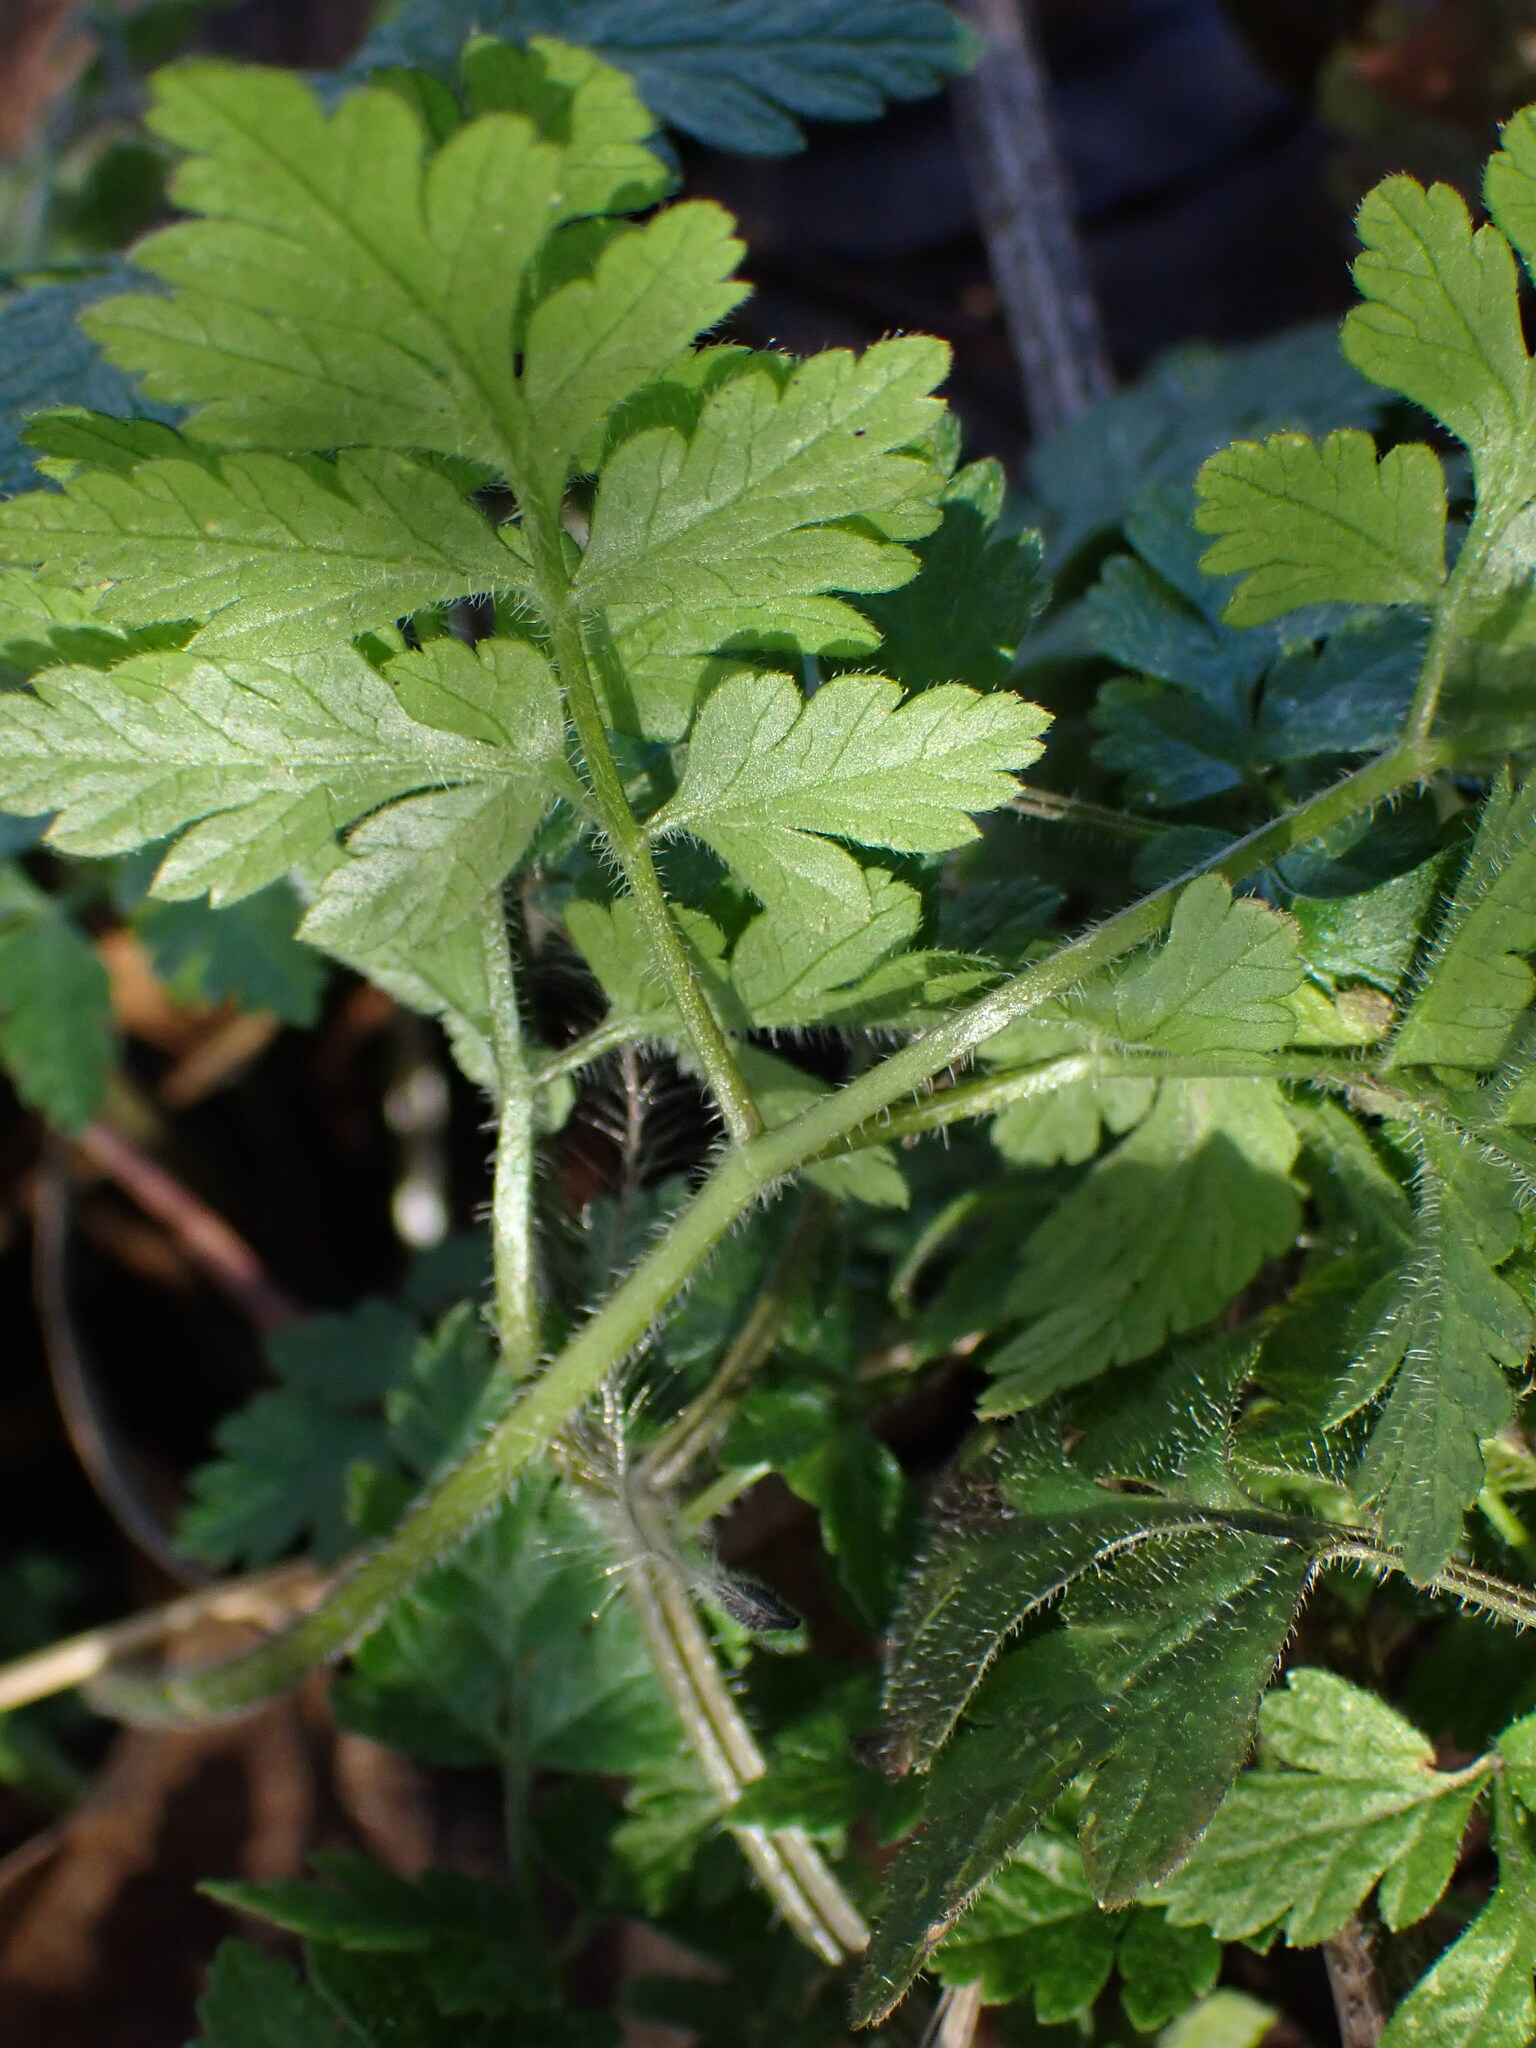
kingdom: Plantae
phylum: Tracheophyta
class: Magnoliopsida
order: Apiales
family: Apiaceae
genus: Chaerophyllum
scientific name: Chaerophyllum temulum
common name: Rough chervil
